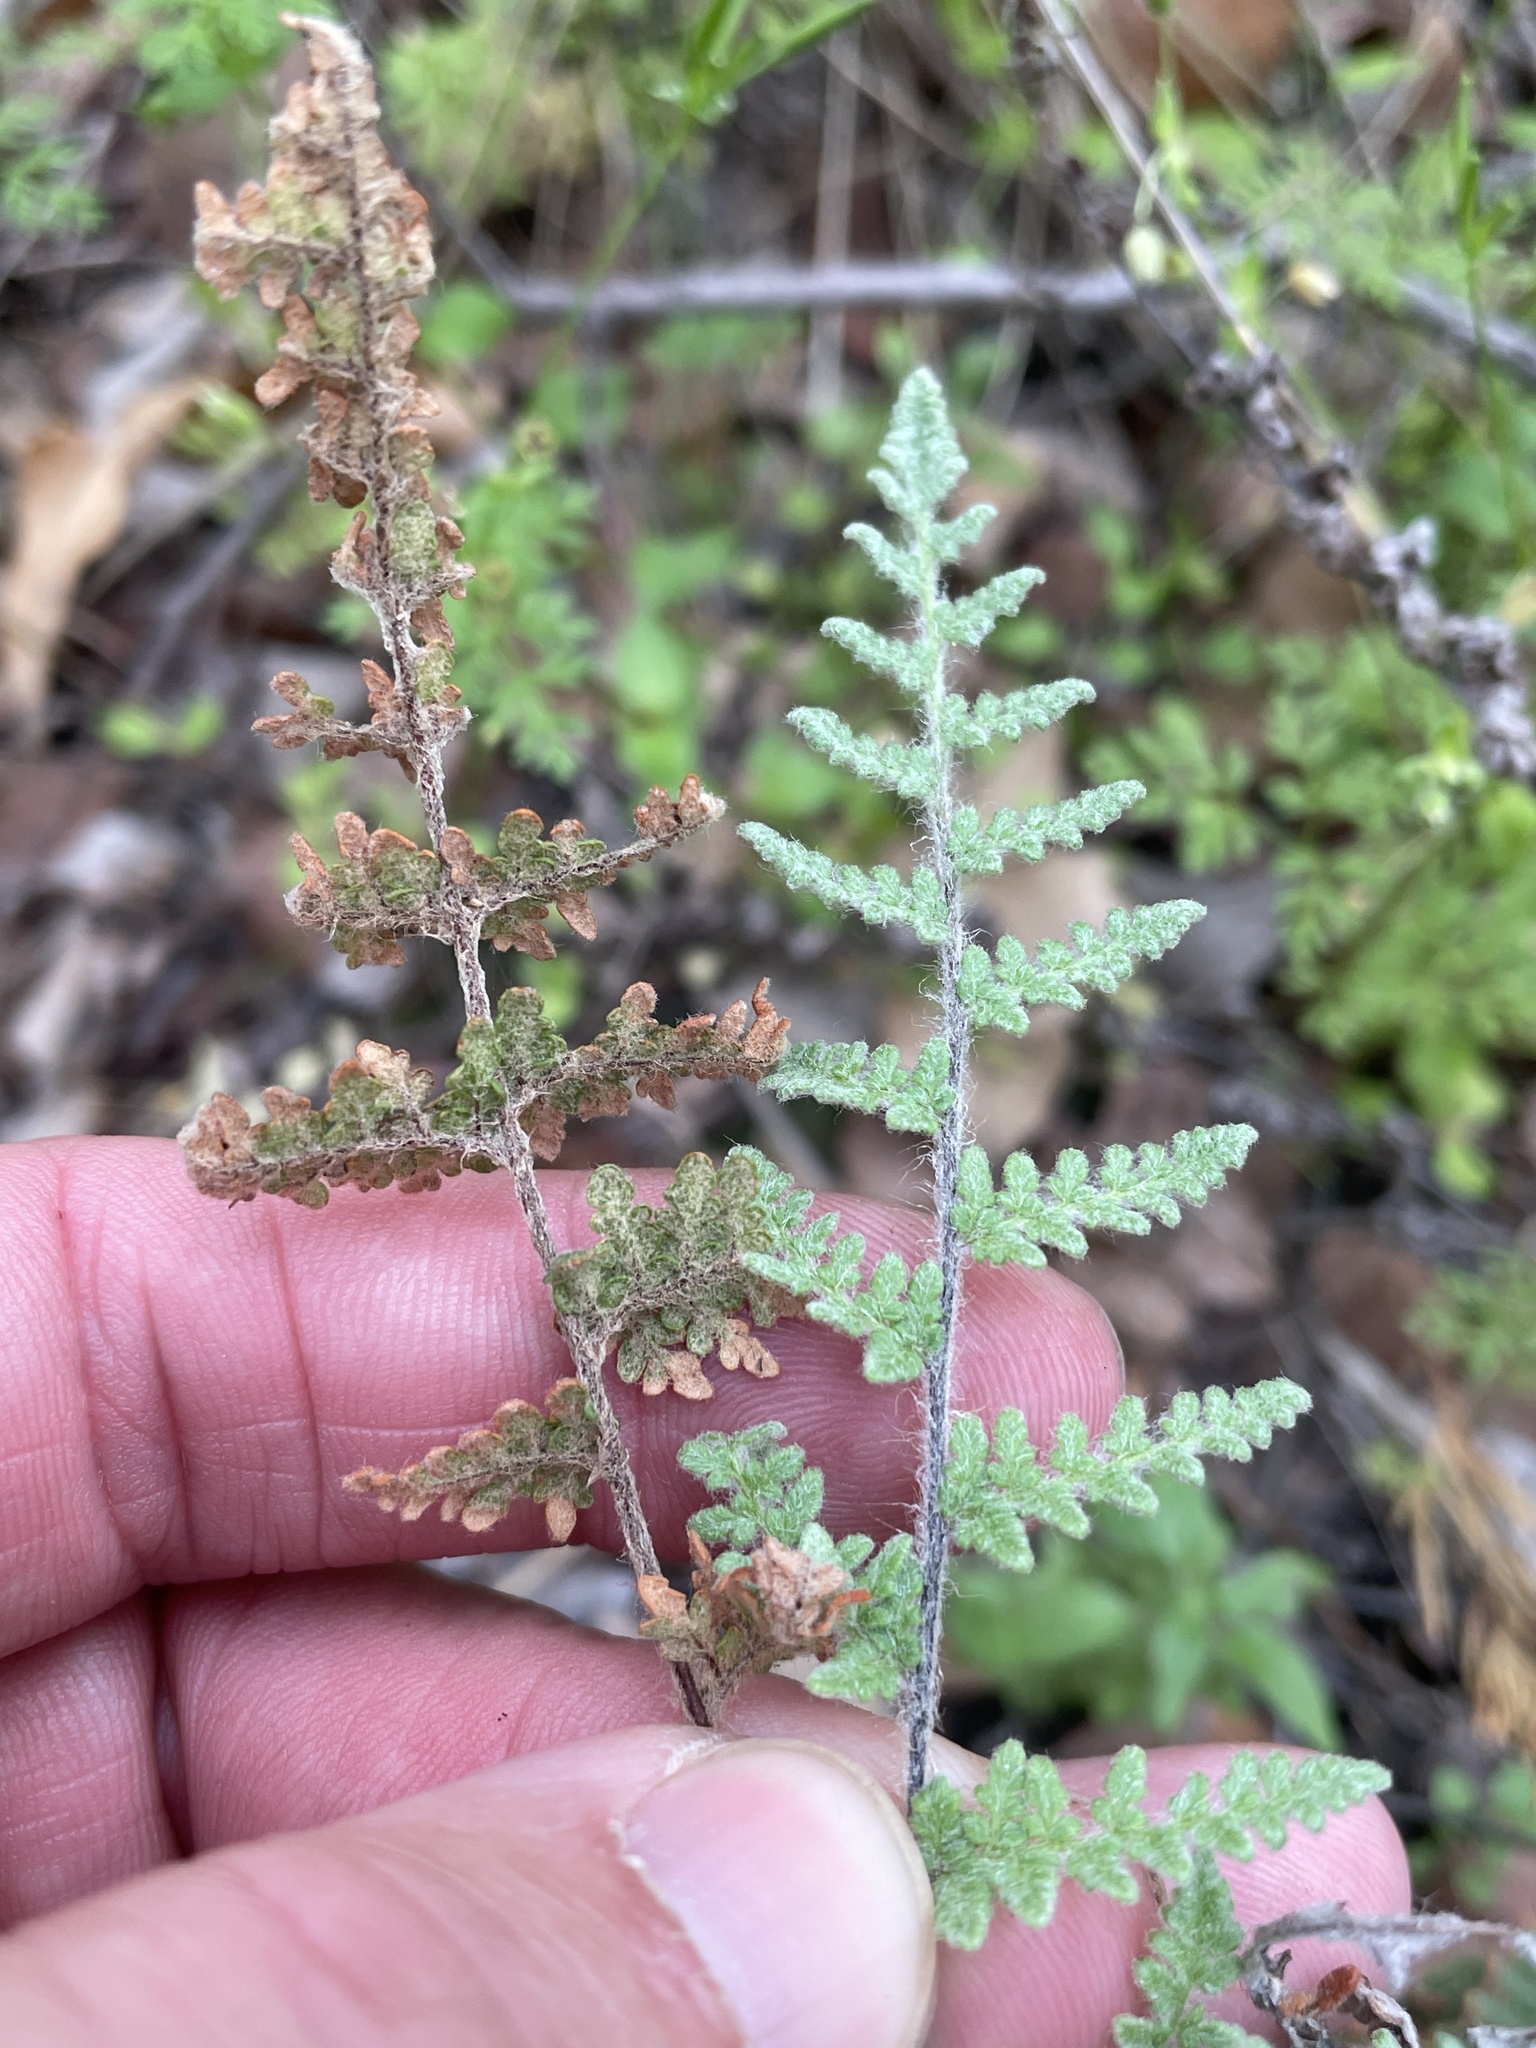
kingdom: Plantae
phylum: Tracheophyta
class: Polypodiopsida
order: Polypodiales
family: Pteridaceae
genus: Myriopteris
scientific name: Myriopteris tomentosa
